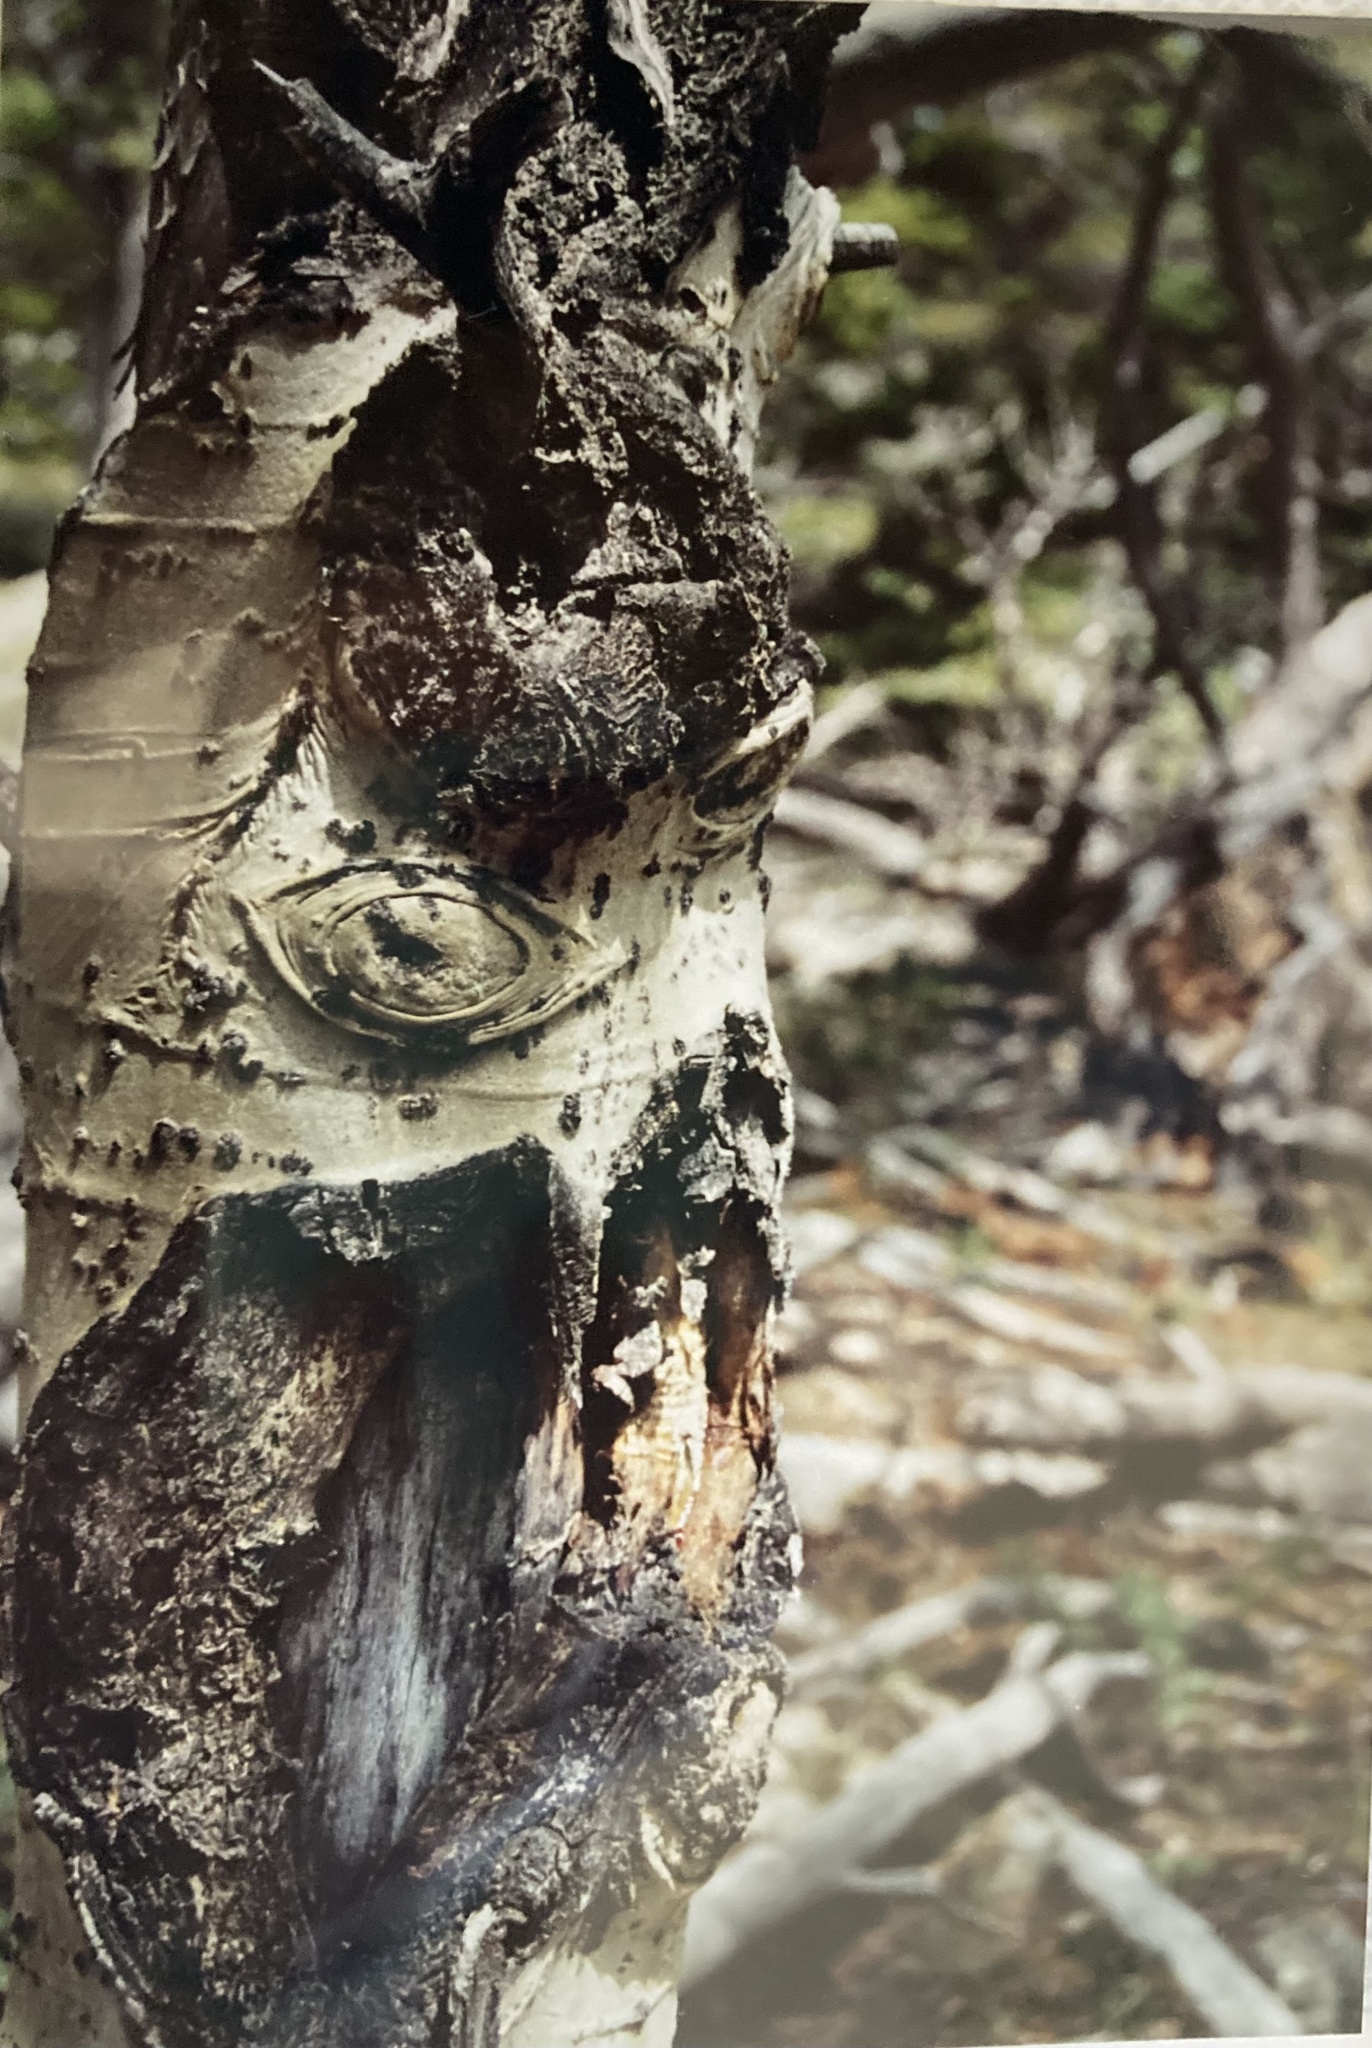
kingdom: Plantae
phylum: Tracheophyta
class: Magnoliopsida
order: Malpighiales
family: Salicaceae
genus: Populus
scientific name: Populus tremuloides
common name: Quaking aspen
